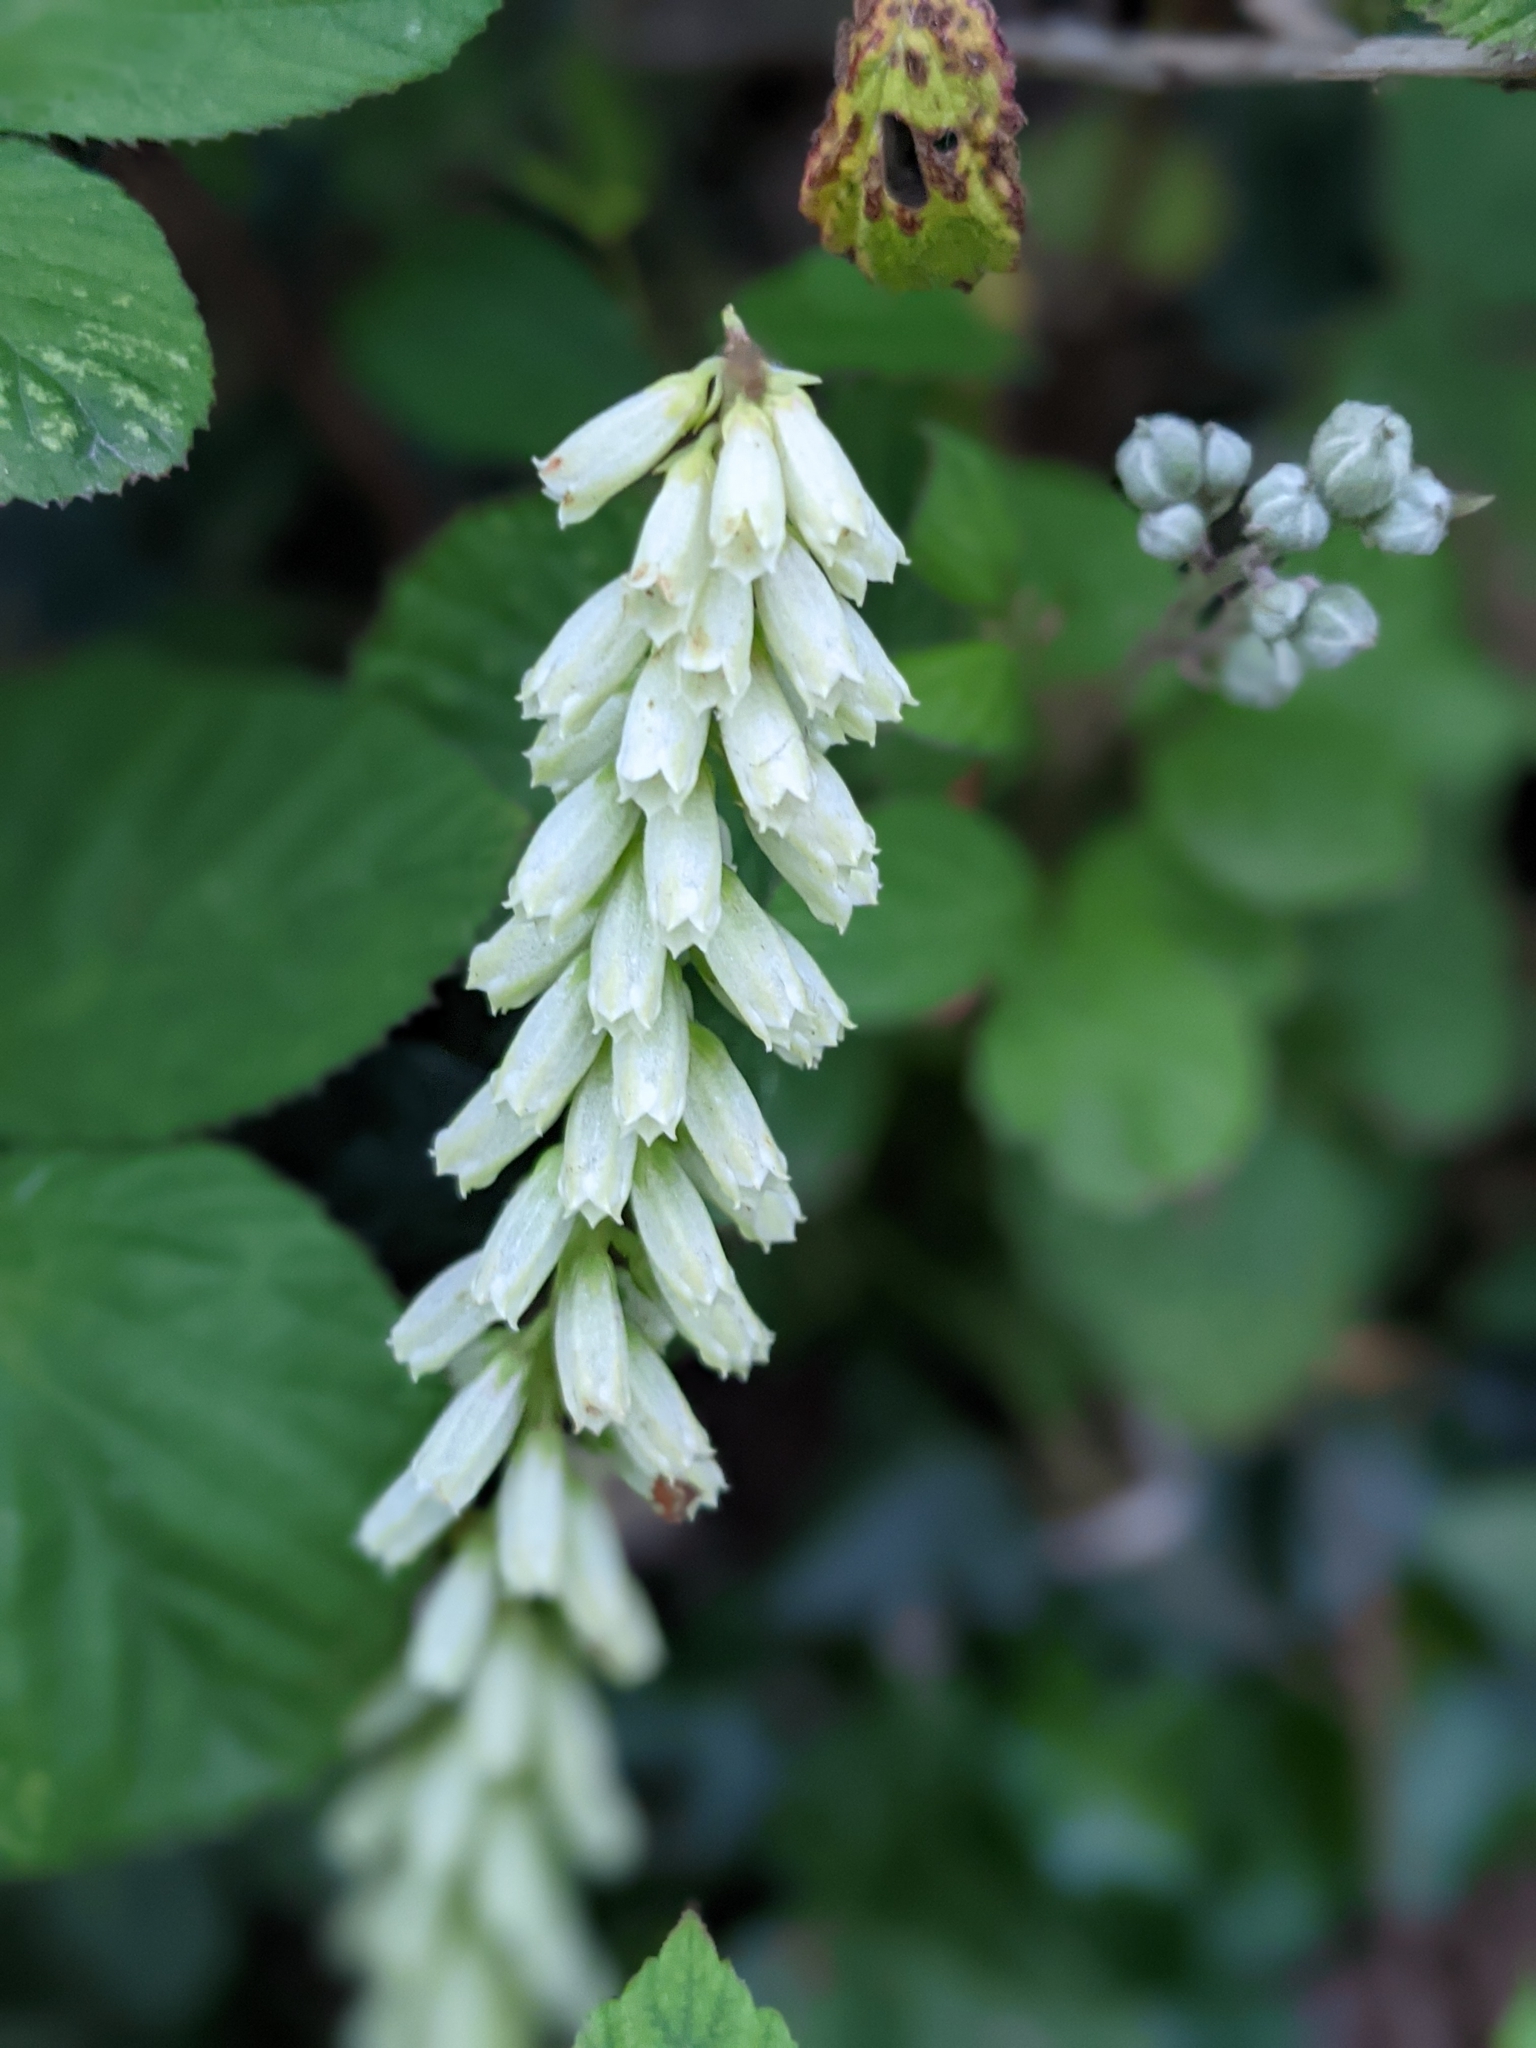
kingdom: Plantae
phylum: Tracheophyta
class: Magnoliopsida
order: Saxifragales
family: Crassulaceae
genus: Umbilicus
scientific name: Umbilicus rupestris
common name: Navelwort
